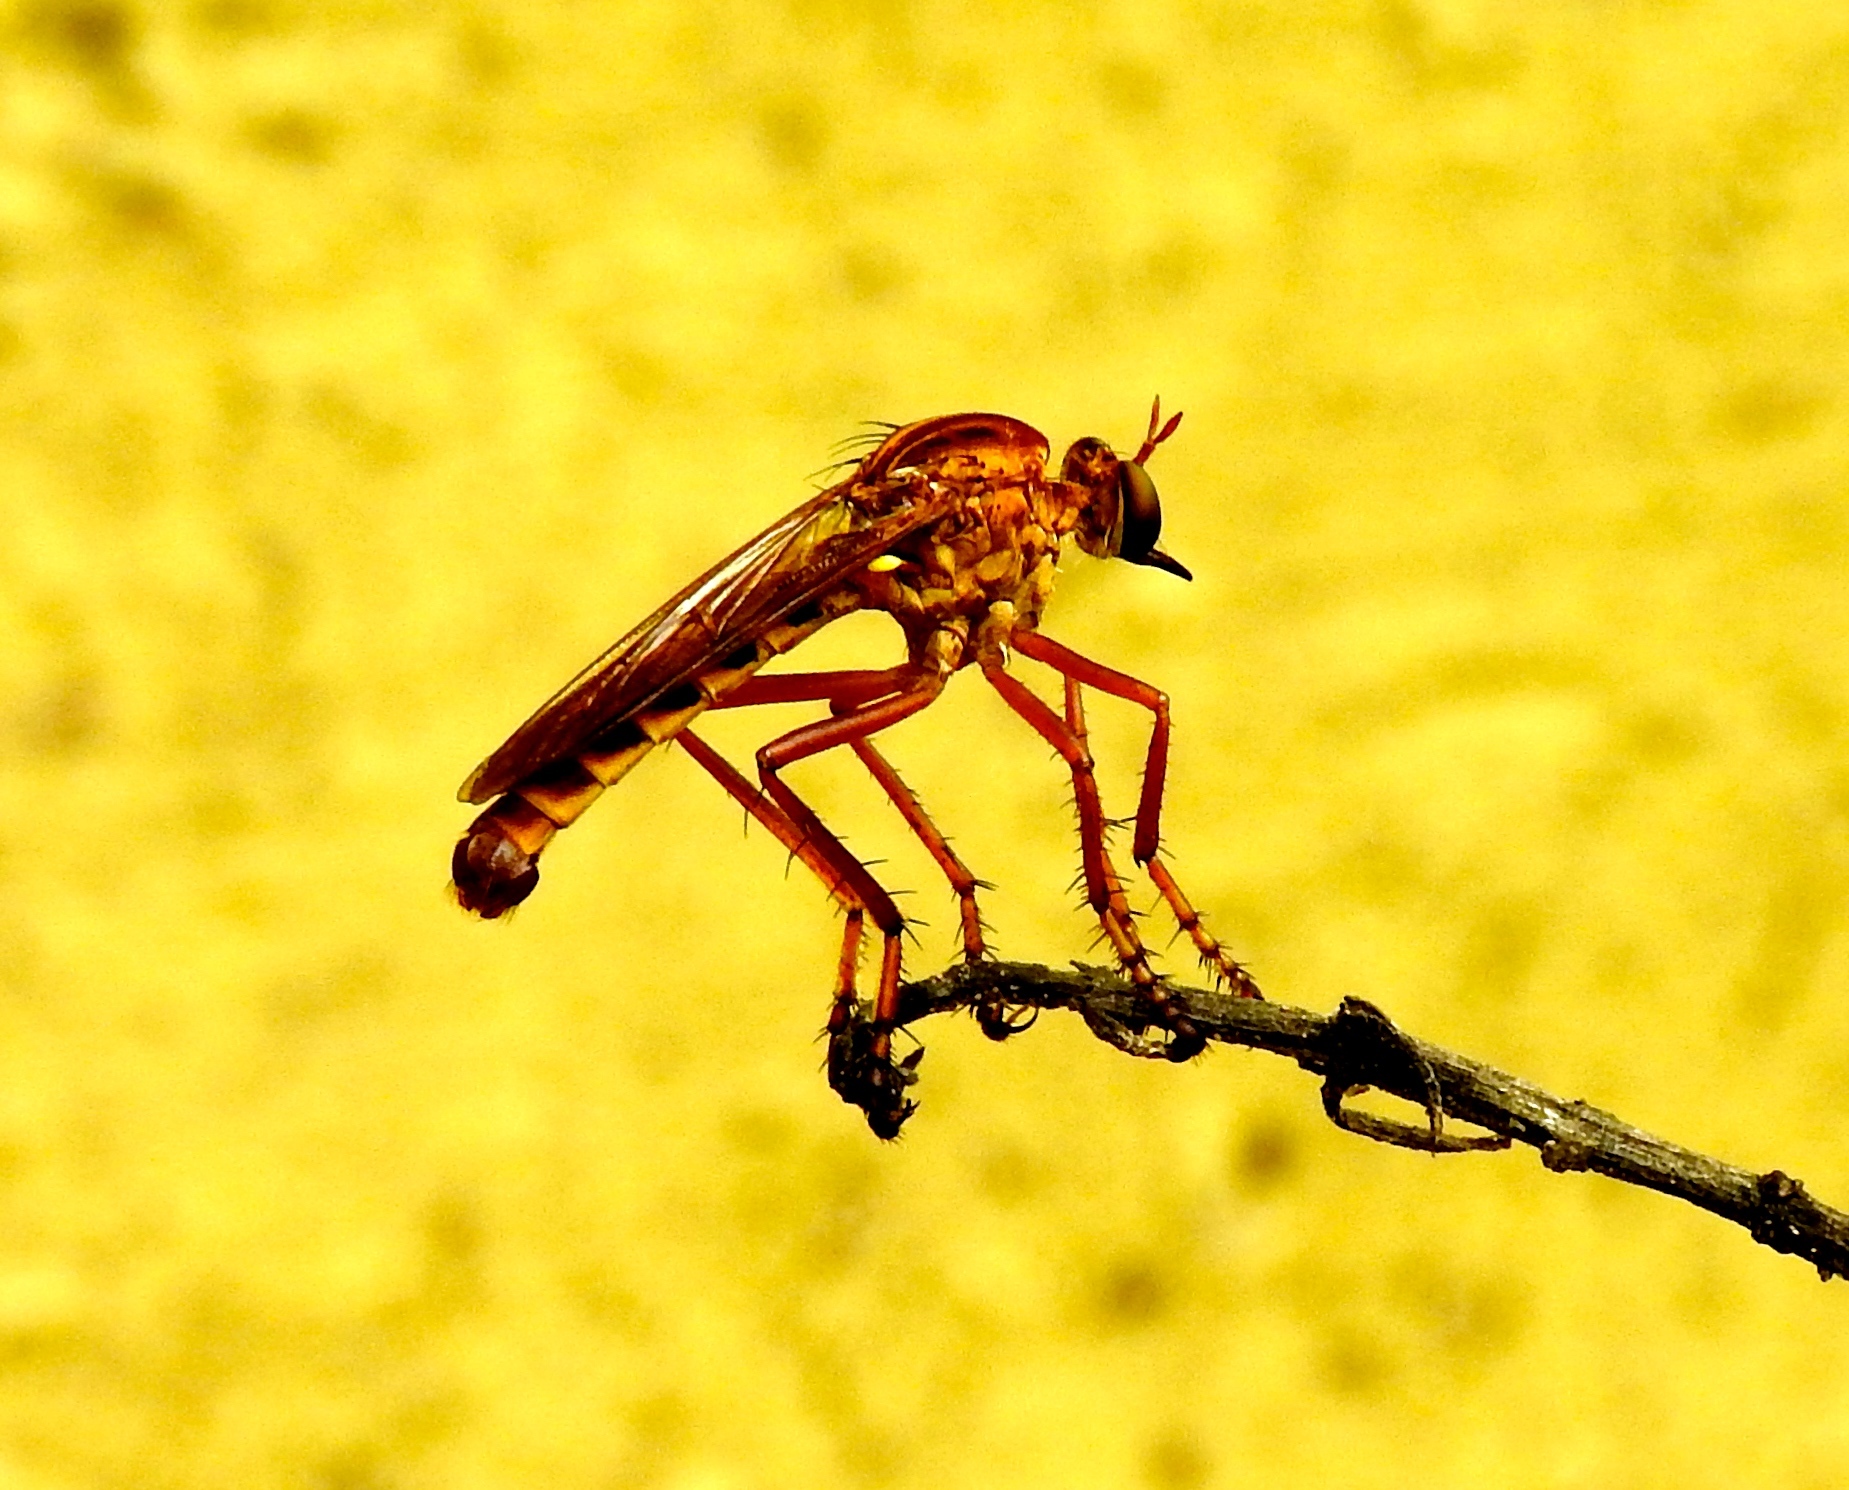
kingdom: Animalia
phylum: Arthropoda
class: Insecta
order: Diptera
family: Asilidae
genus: Diogmites
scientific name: Diogmites angustipennis
